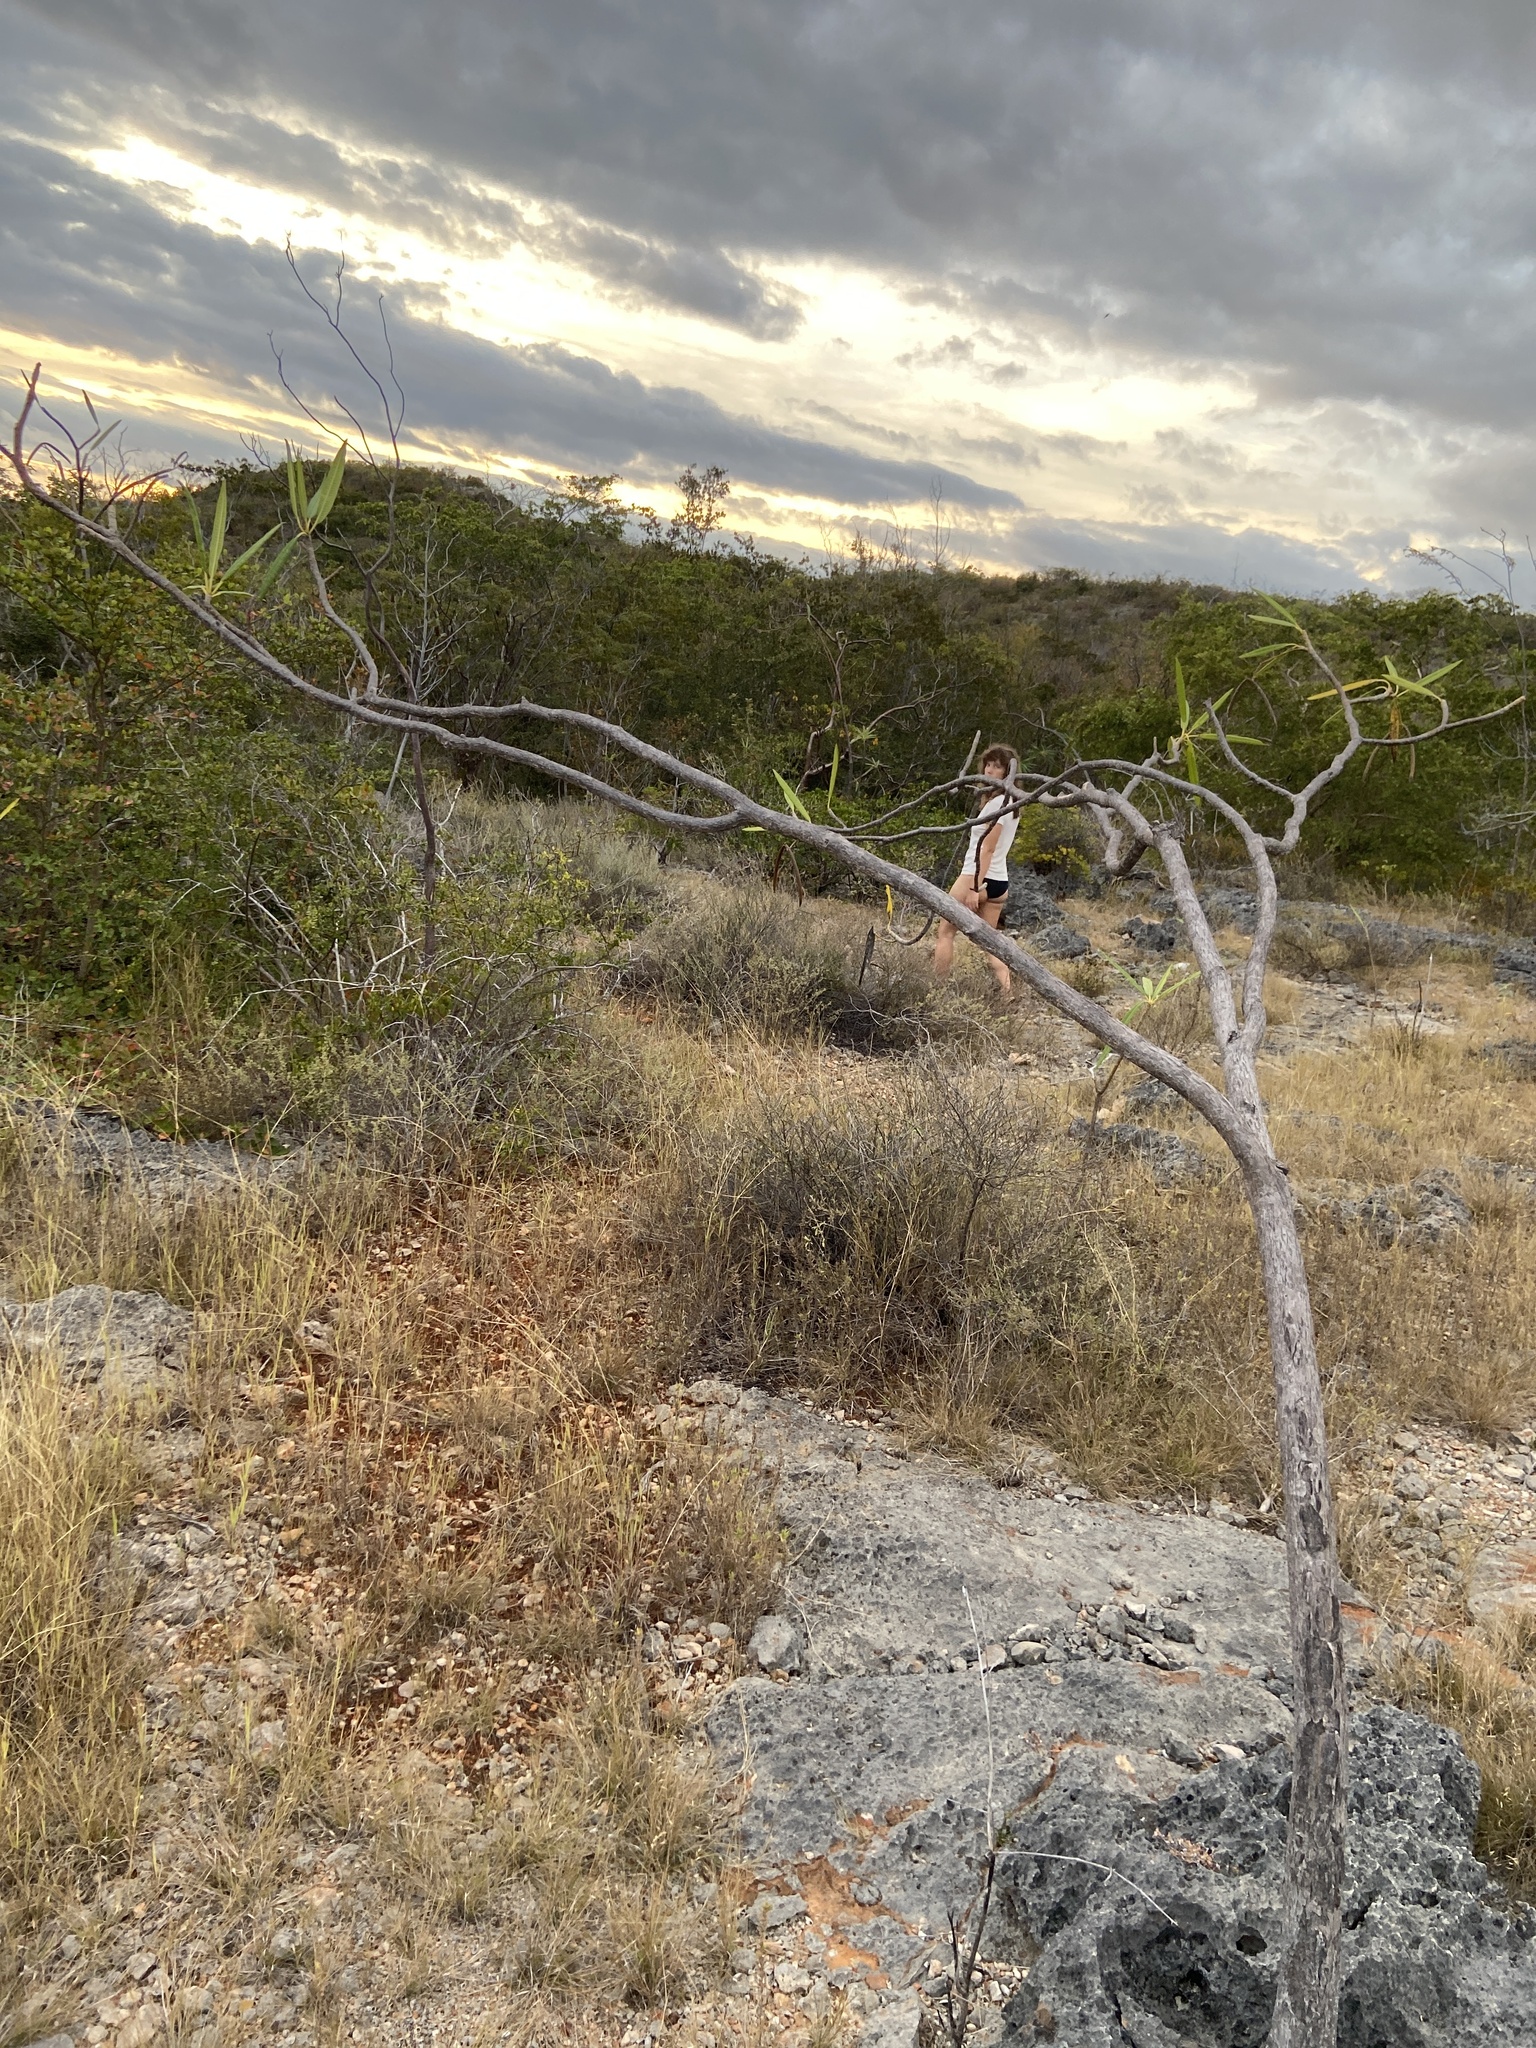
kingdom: Plantae
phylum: Tracheophyta
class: Magnoliopsida
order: Gentianales
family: Apocynaceae
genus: Plumeria
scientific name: Plumeria alba
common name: Wild frangipani
